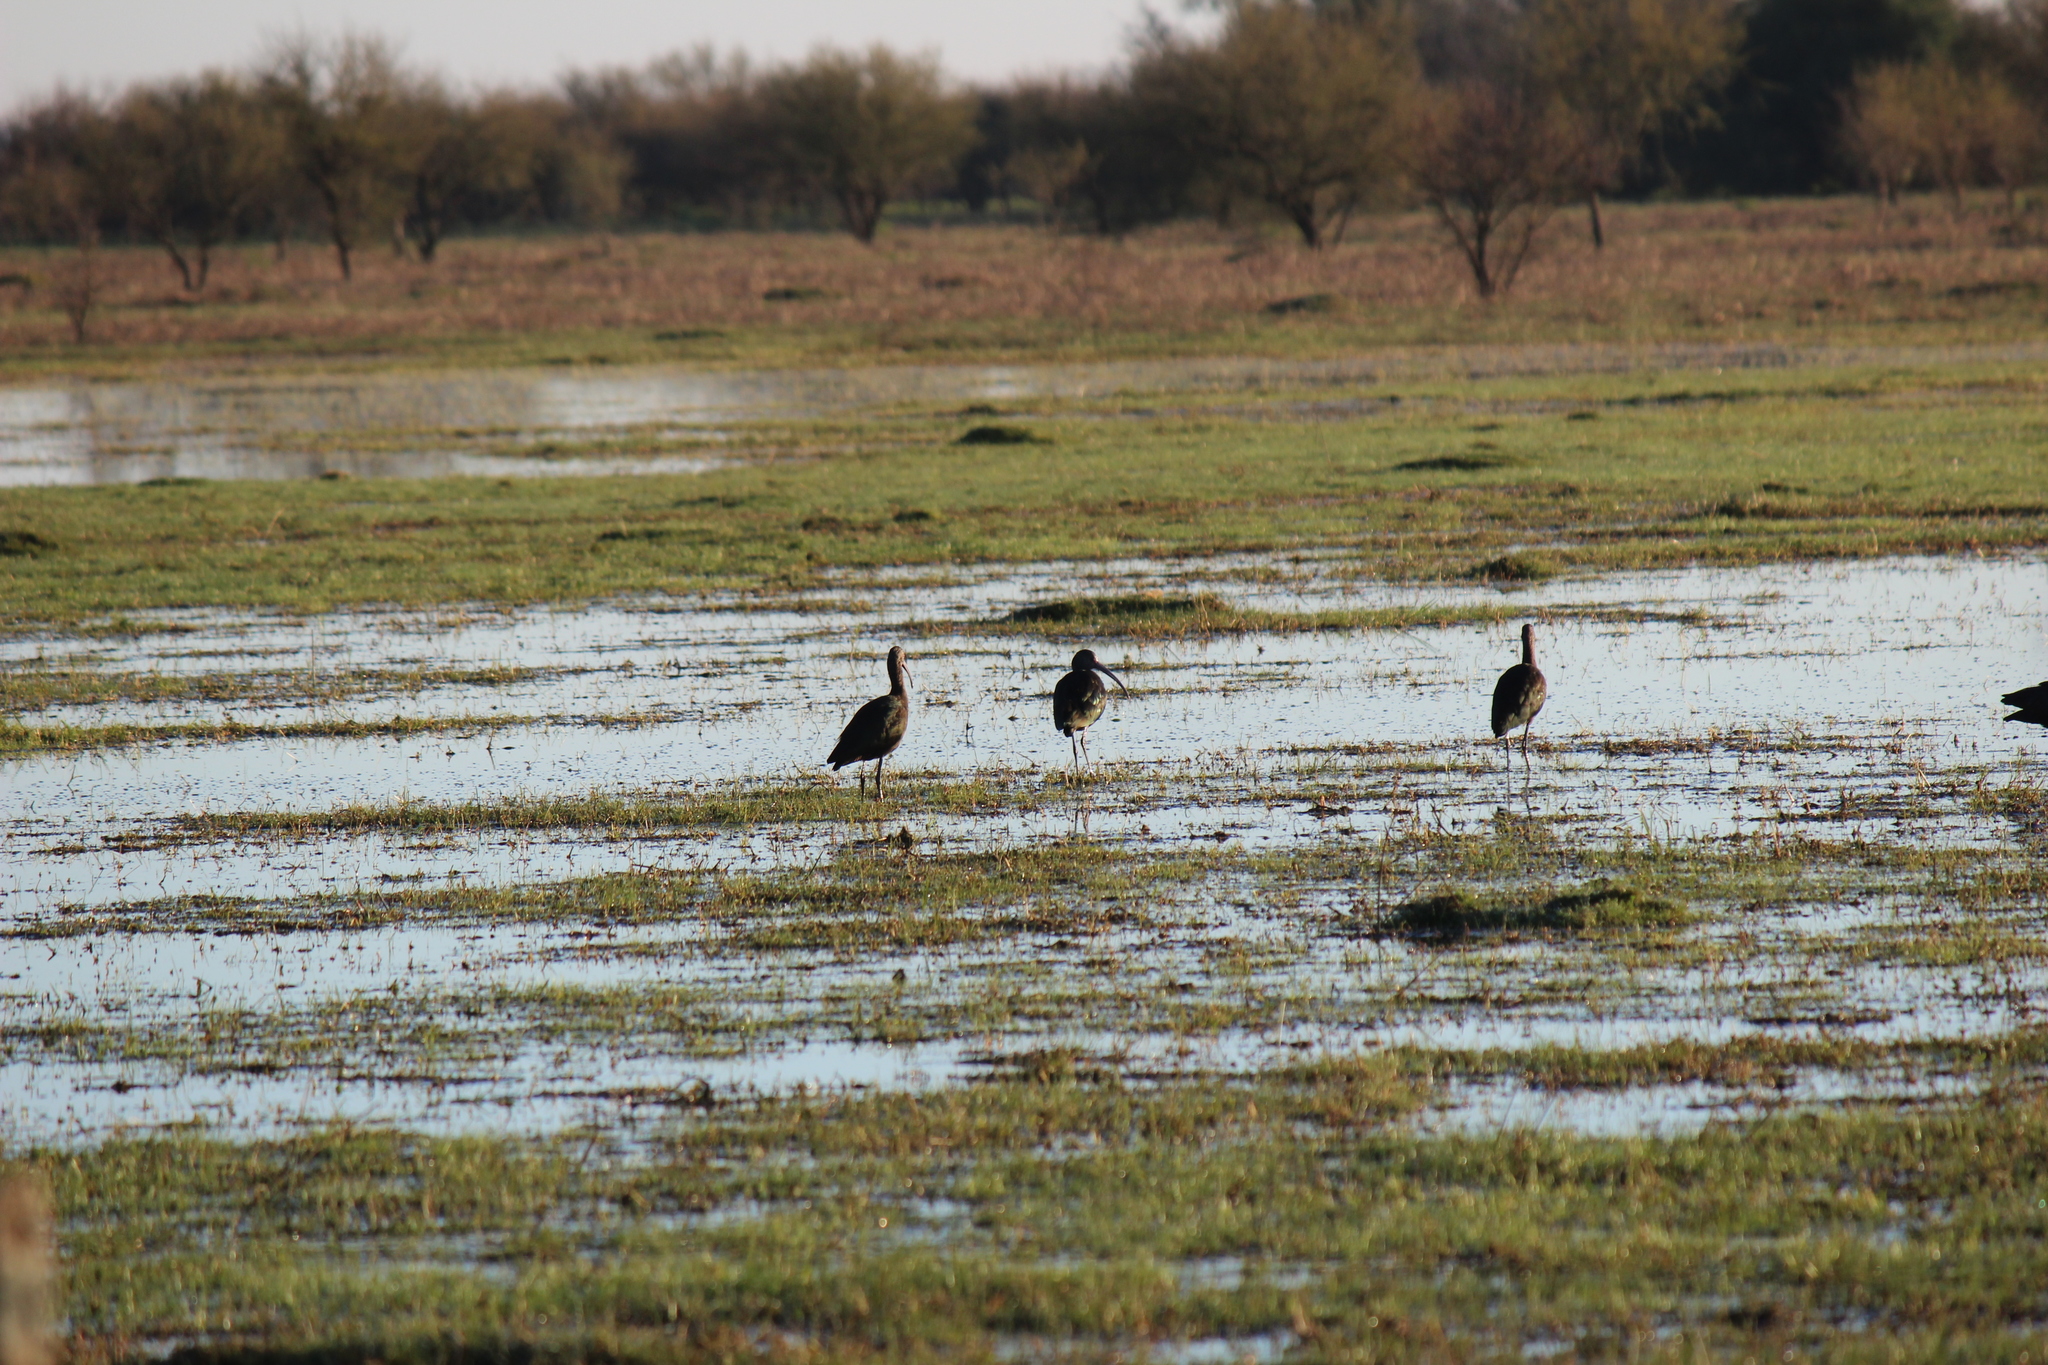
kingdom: Animalia
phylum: Chordata
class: Aves
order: Pelecaniformes
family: Threskiornithidae
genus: Plegadis
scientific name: Plegadis chihi
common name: White-faced ibis
